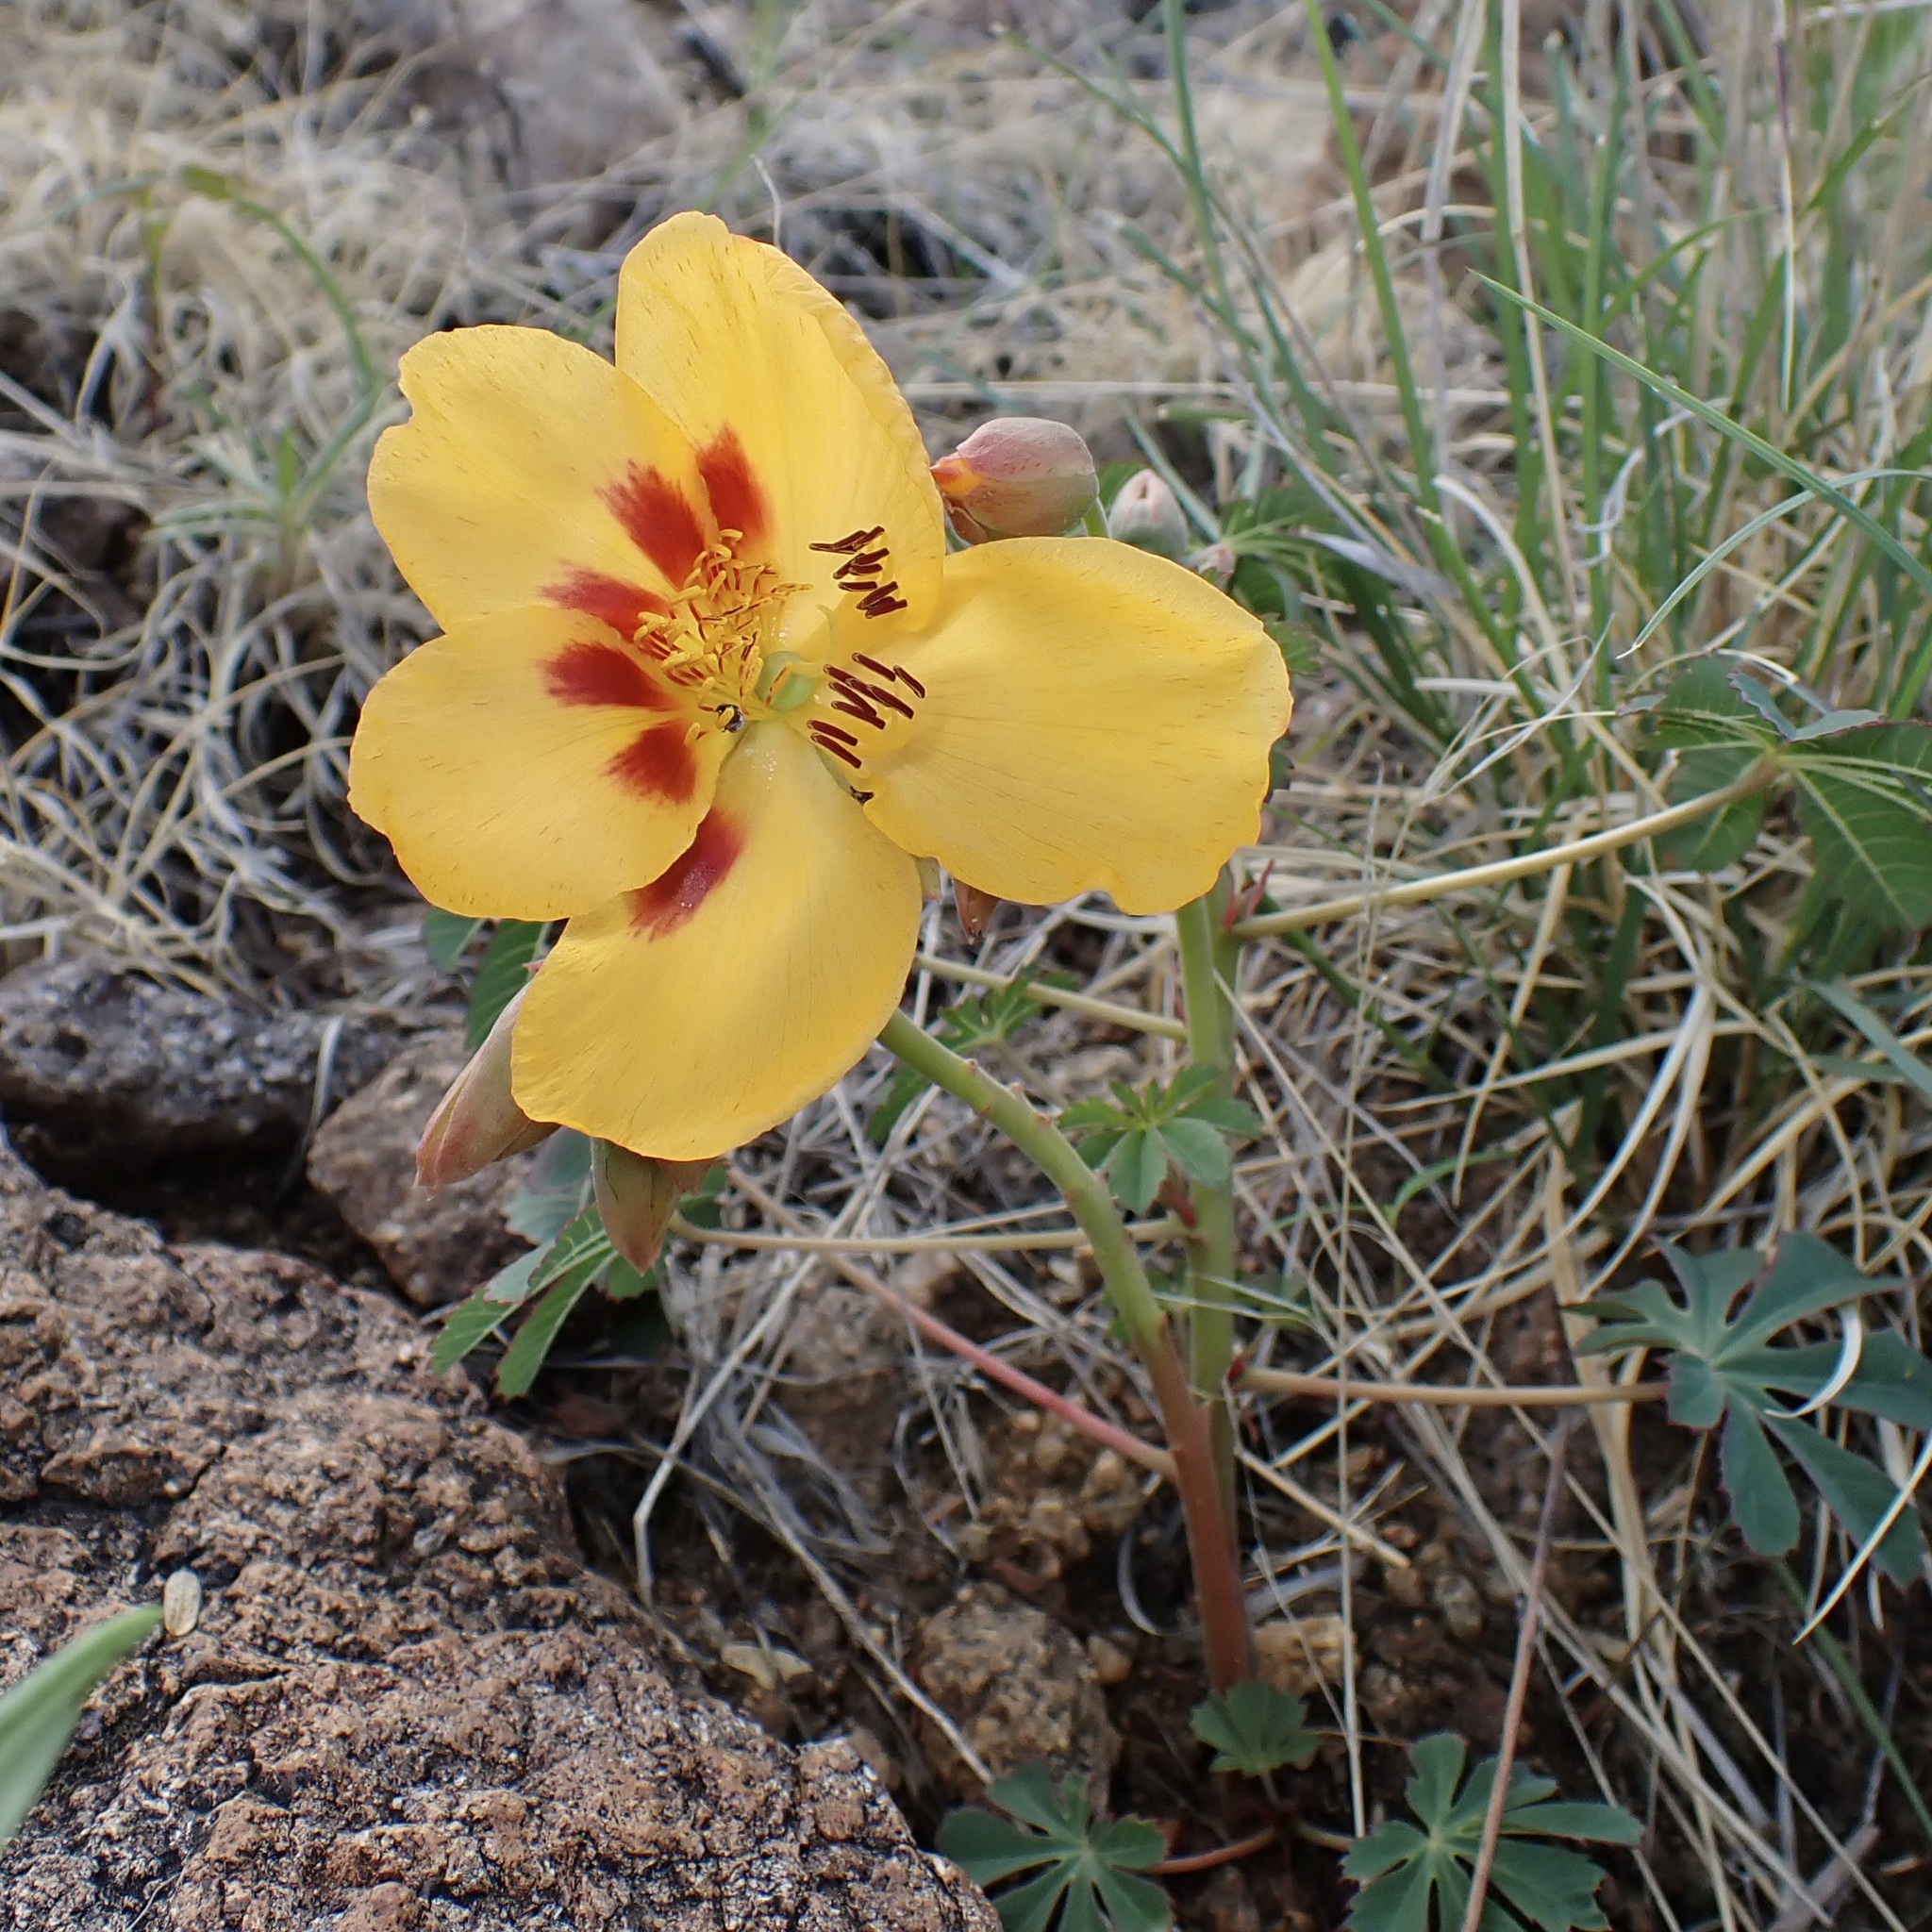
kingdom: Plantae
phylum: Tracheophyta
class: Magnoliopsida
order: Malvales
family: Cochlospermaceae
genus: Cochlospermum
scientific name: Cochlospermum palmatifidum
